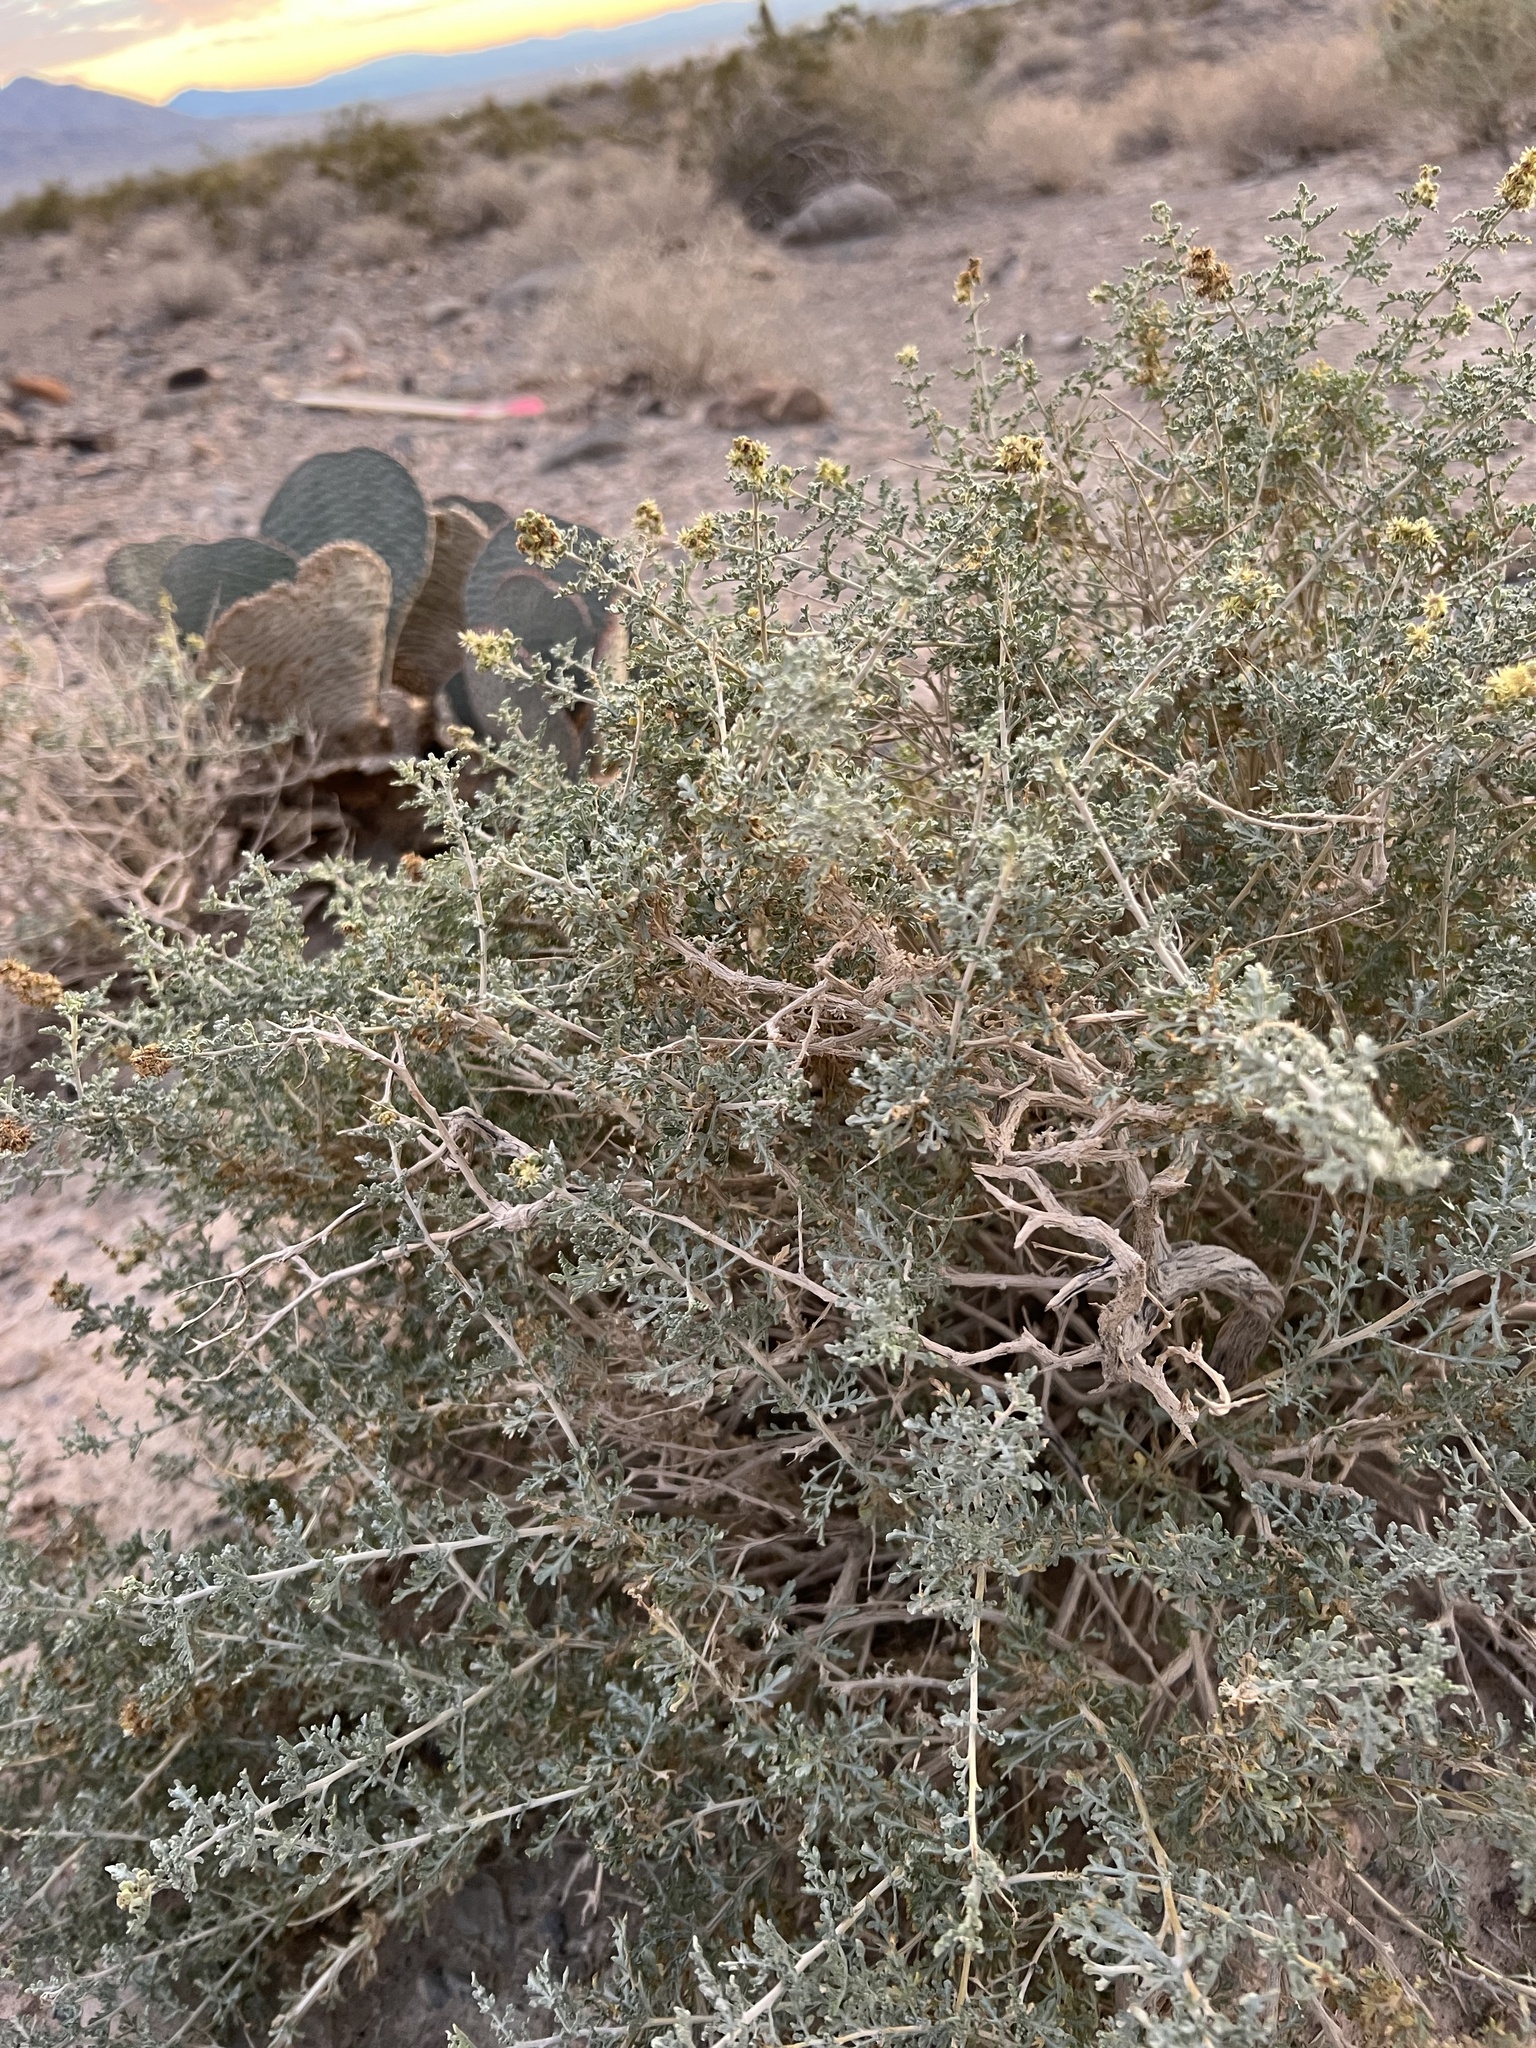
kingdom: Plantae
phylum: Tracheophyta
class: Magnoliopsida
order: Asterales
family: Asteraceae
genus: Ambrosia
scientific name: Ambrosia dumosa
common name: Bur-sage
